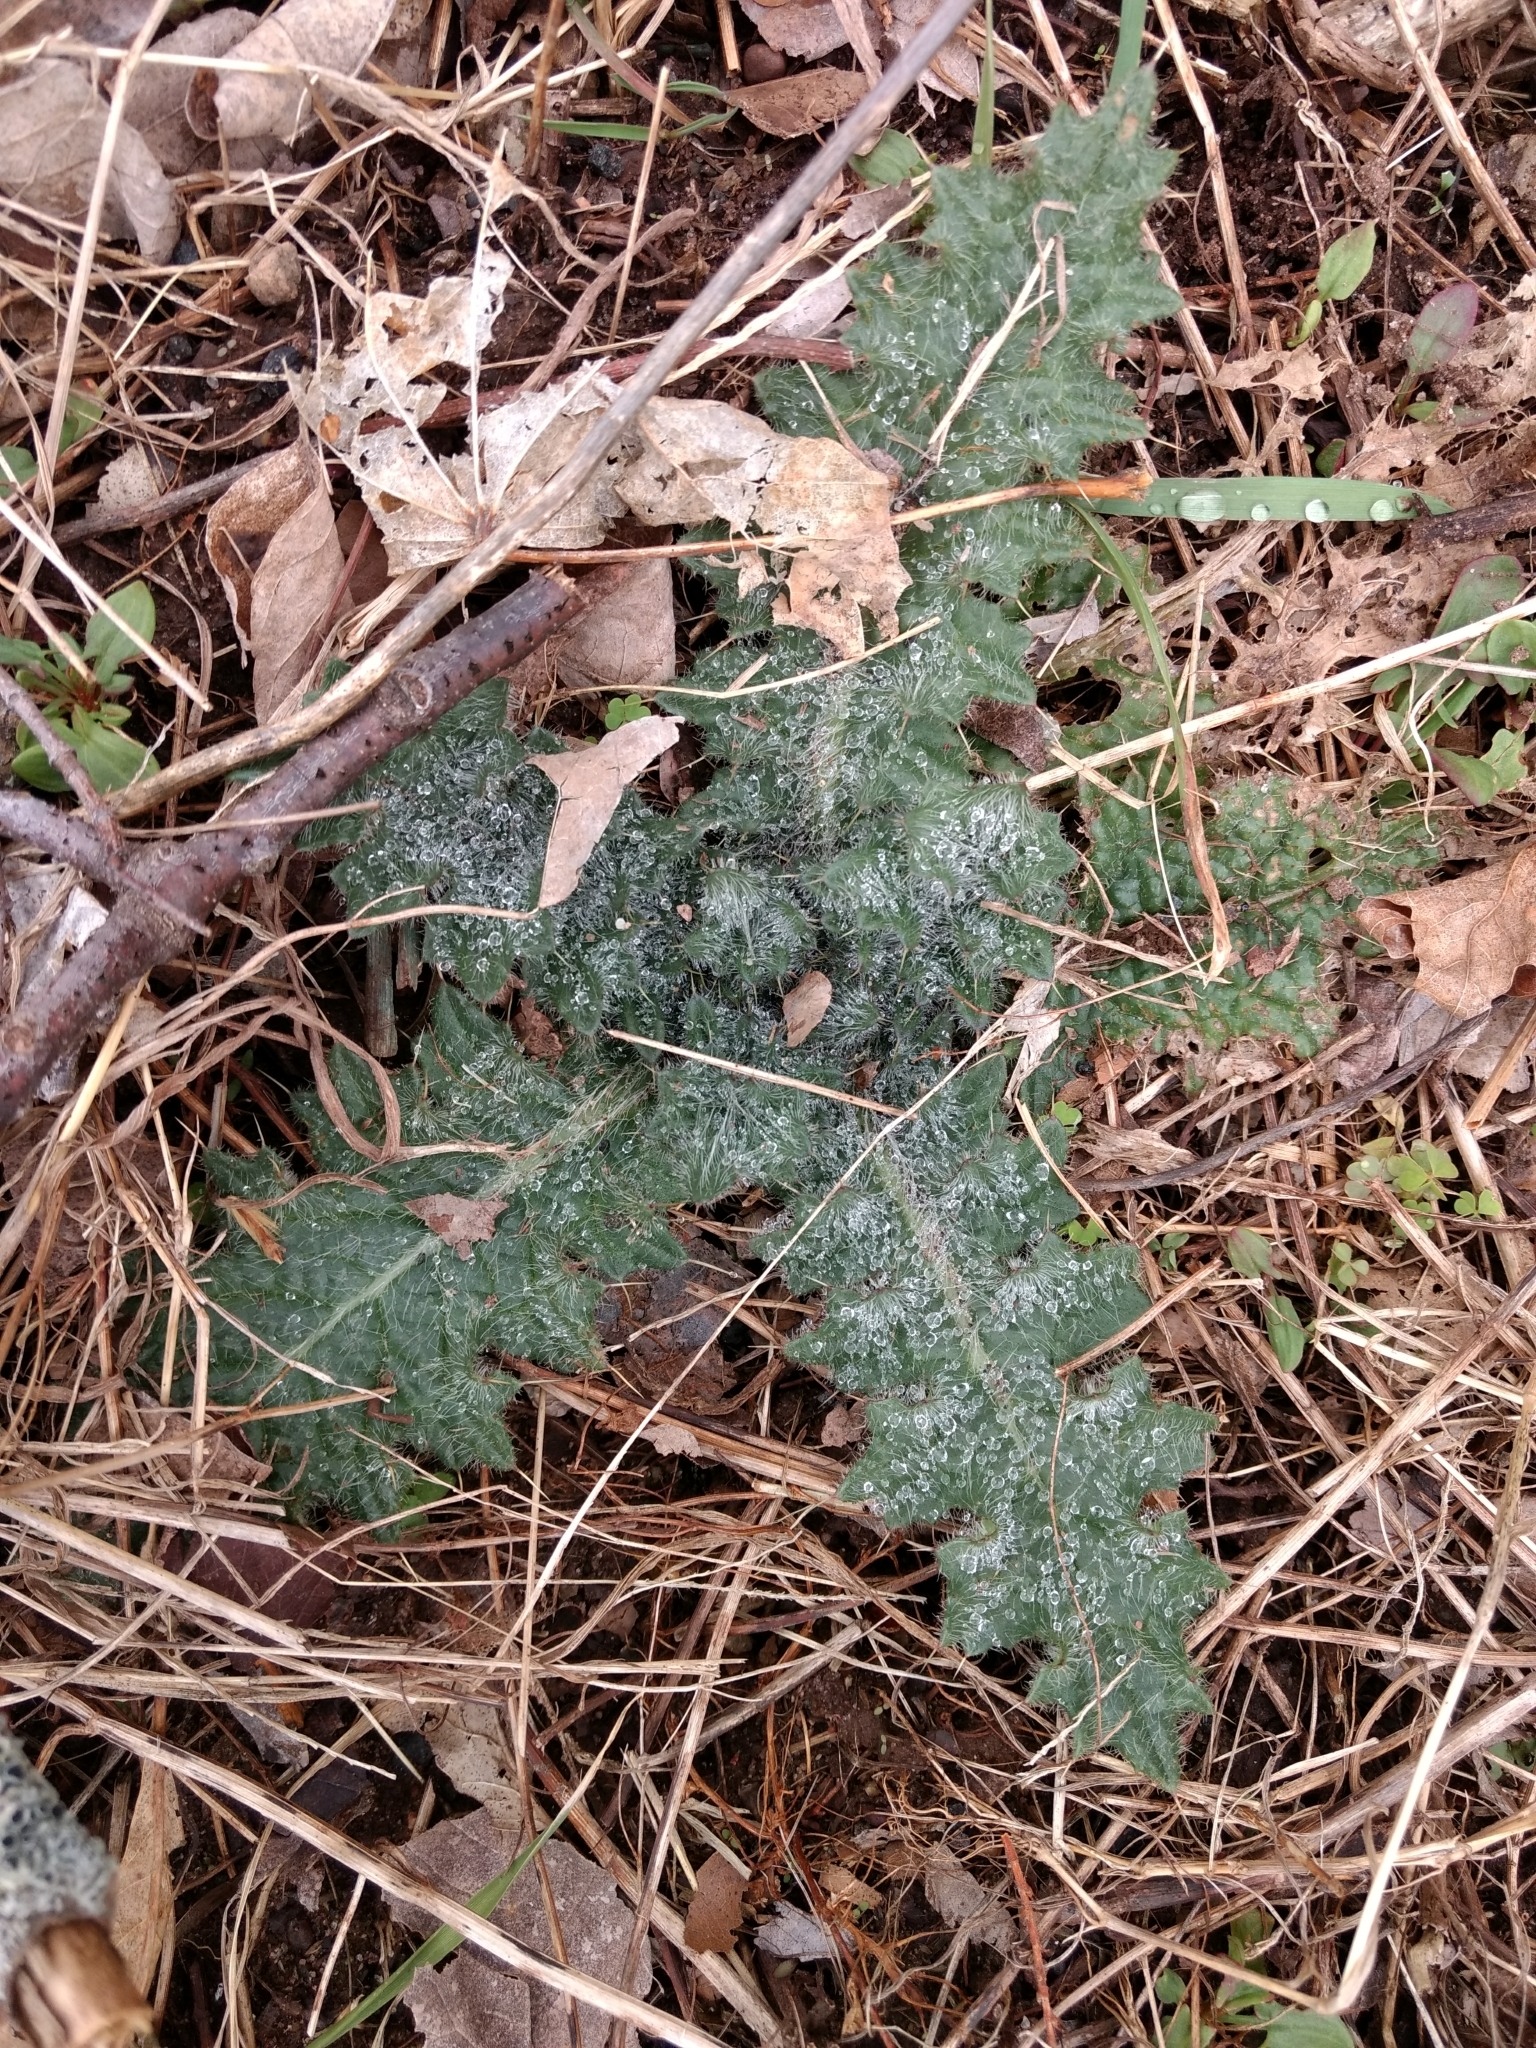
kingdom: Plantae
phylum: Tracheophyta
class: Magnoliopsida
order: Asterales
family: Asteraceae
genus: Cirsium
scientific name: Cirsium vulgare
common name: Bull thistle
